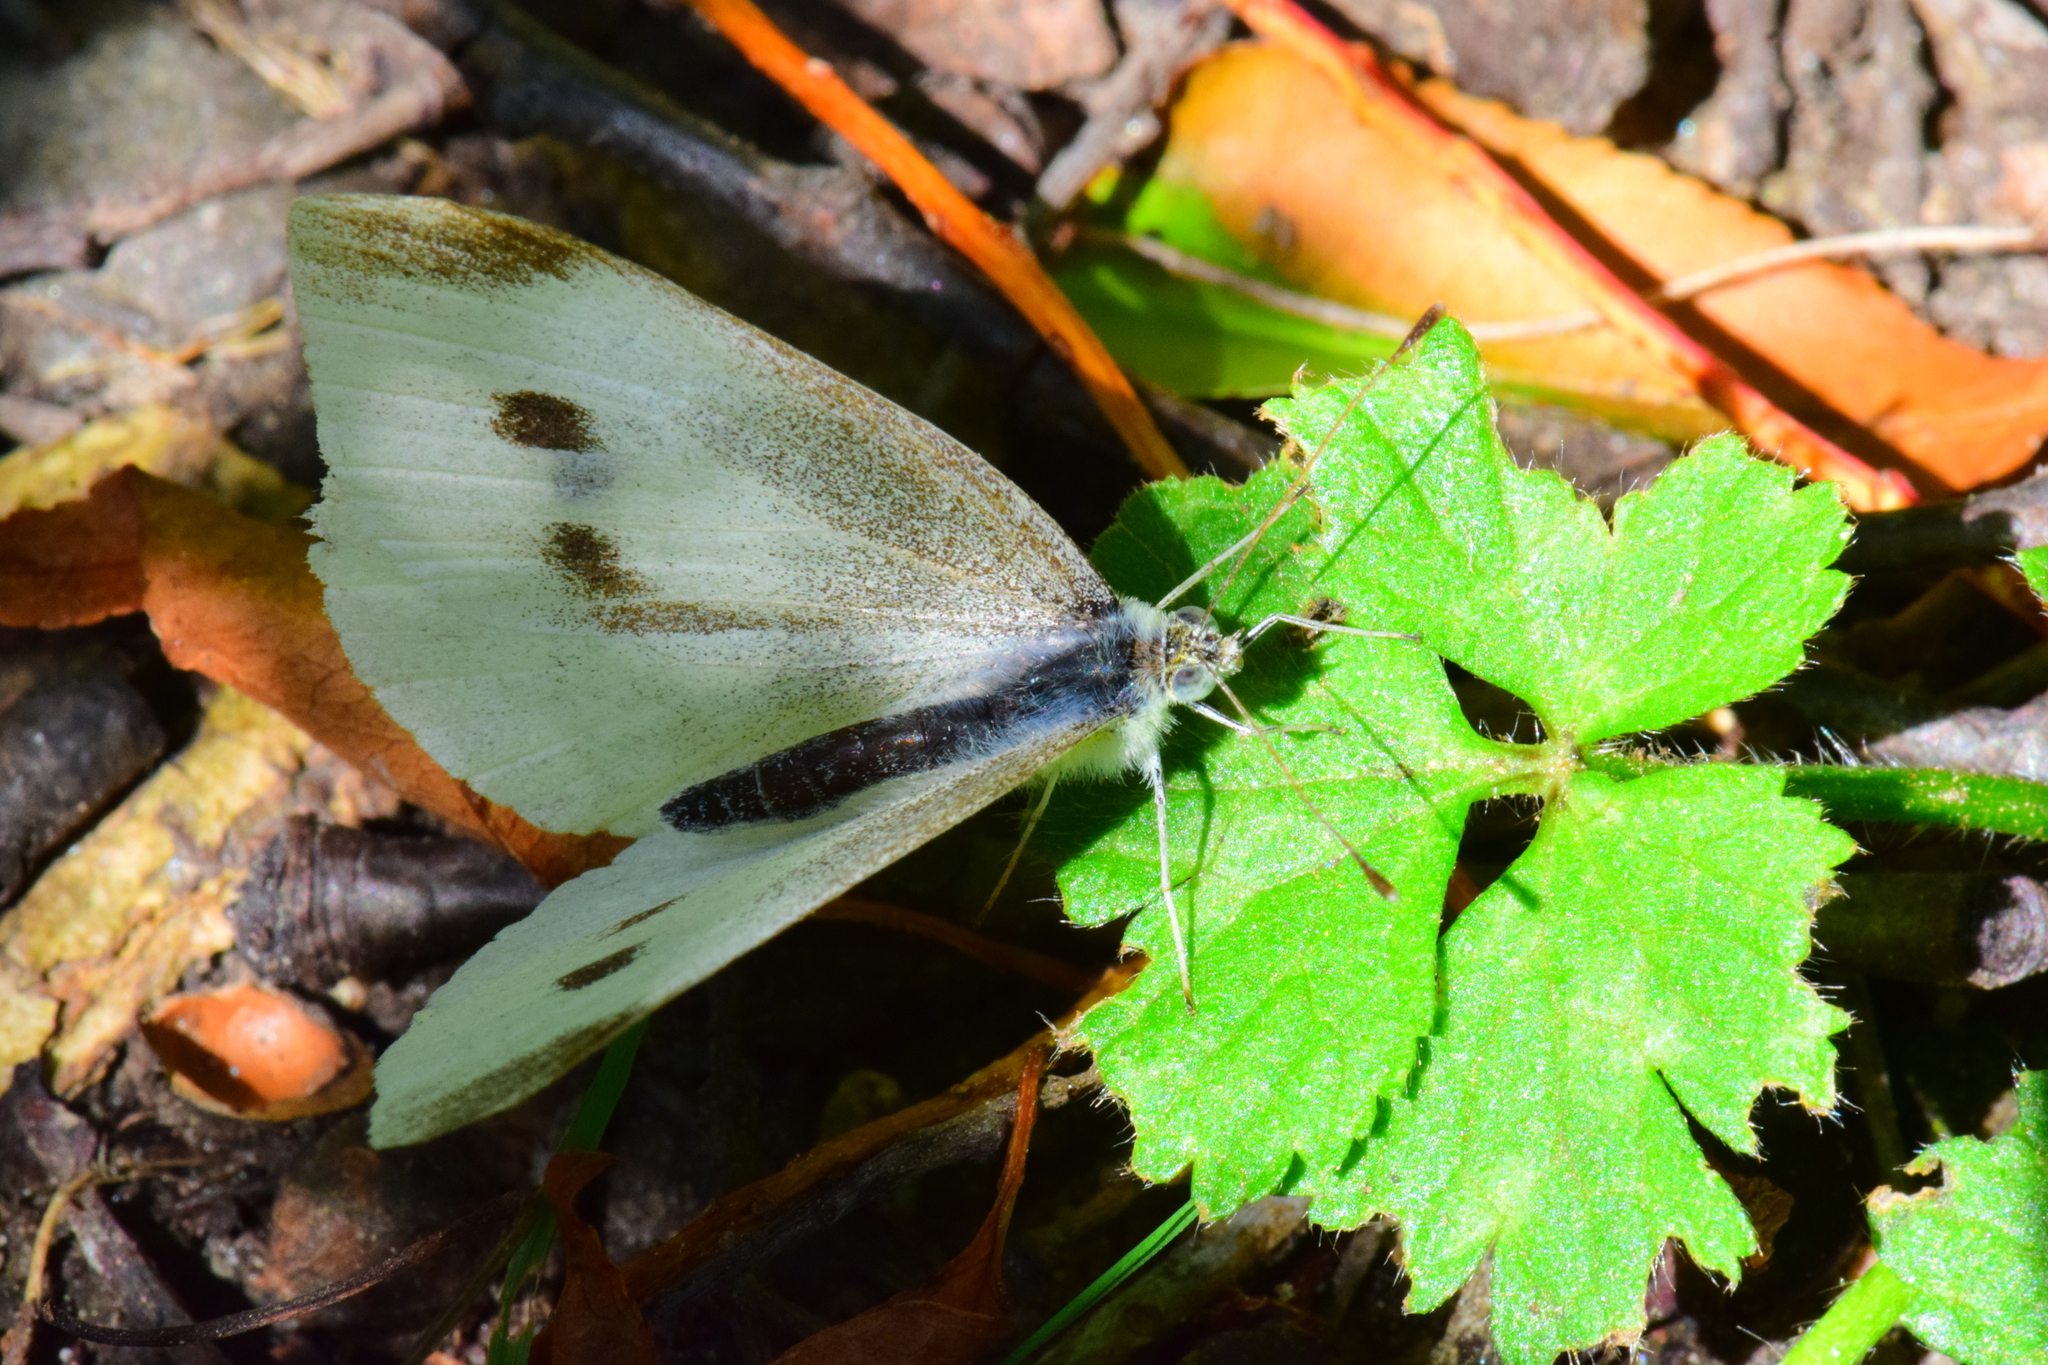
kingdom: Animalia
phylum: Arthropoda
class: Insecta
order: Lepidoptera
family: Pieridae
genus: Pieris
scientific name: Pieris rapae
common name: Small white
